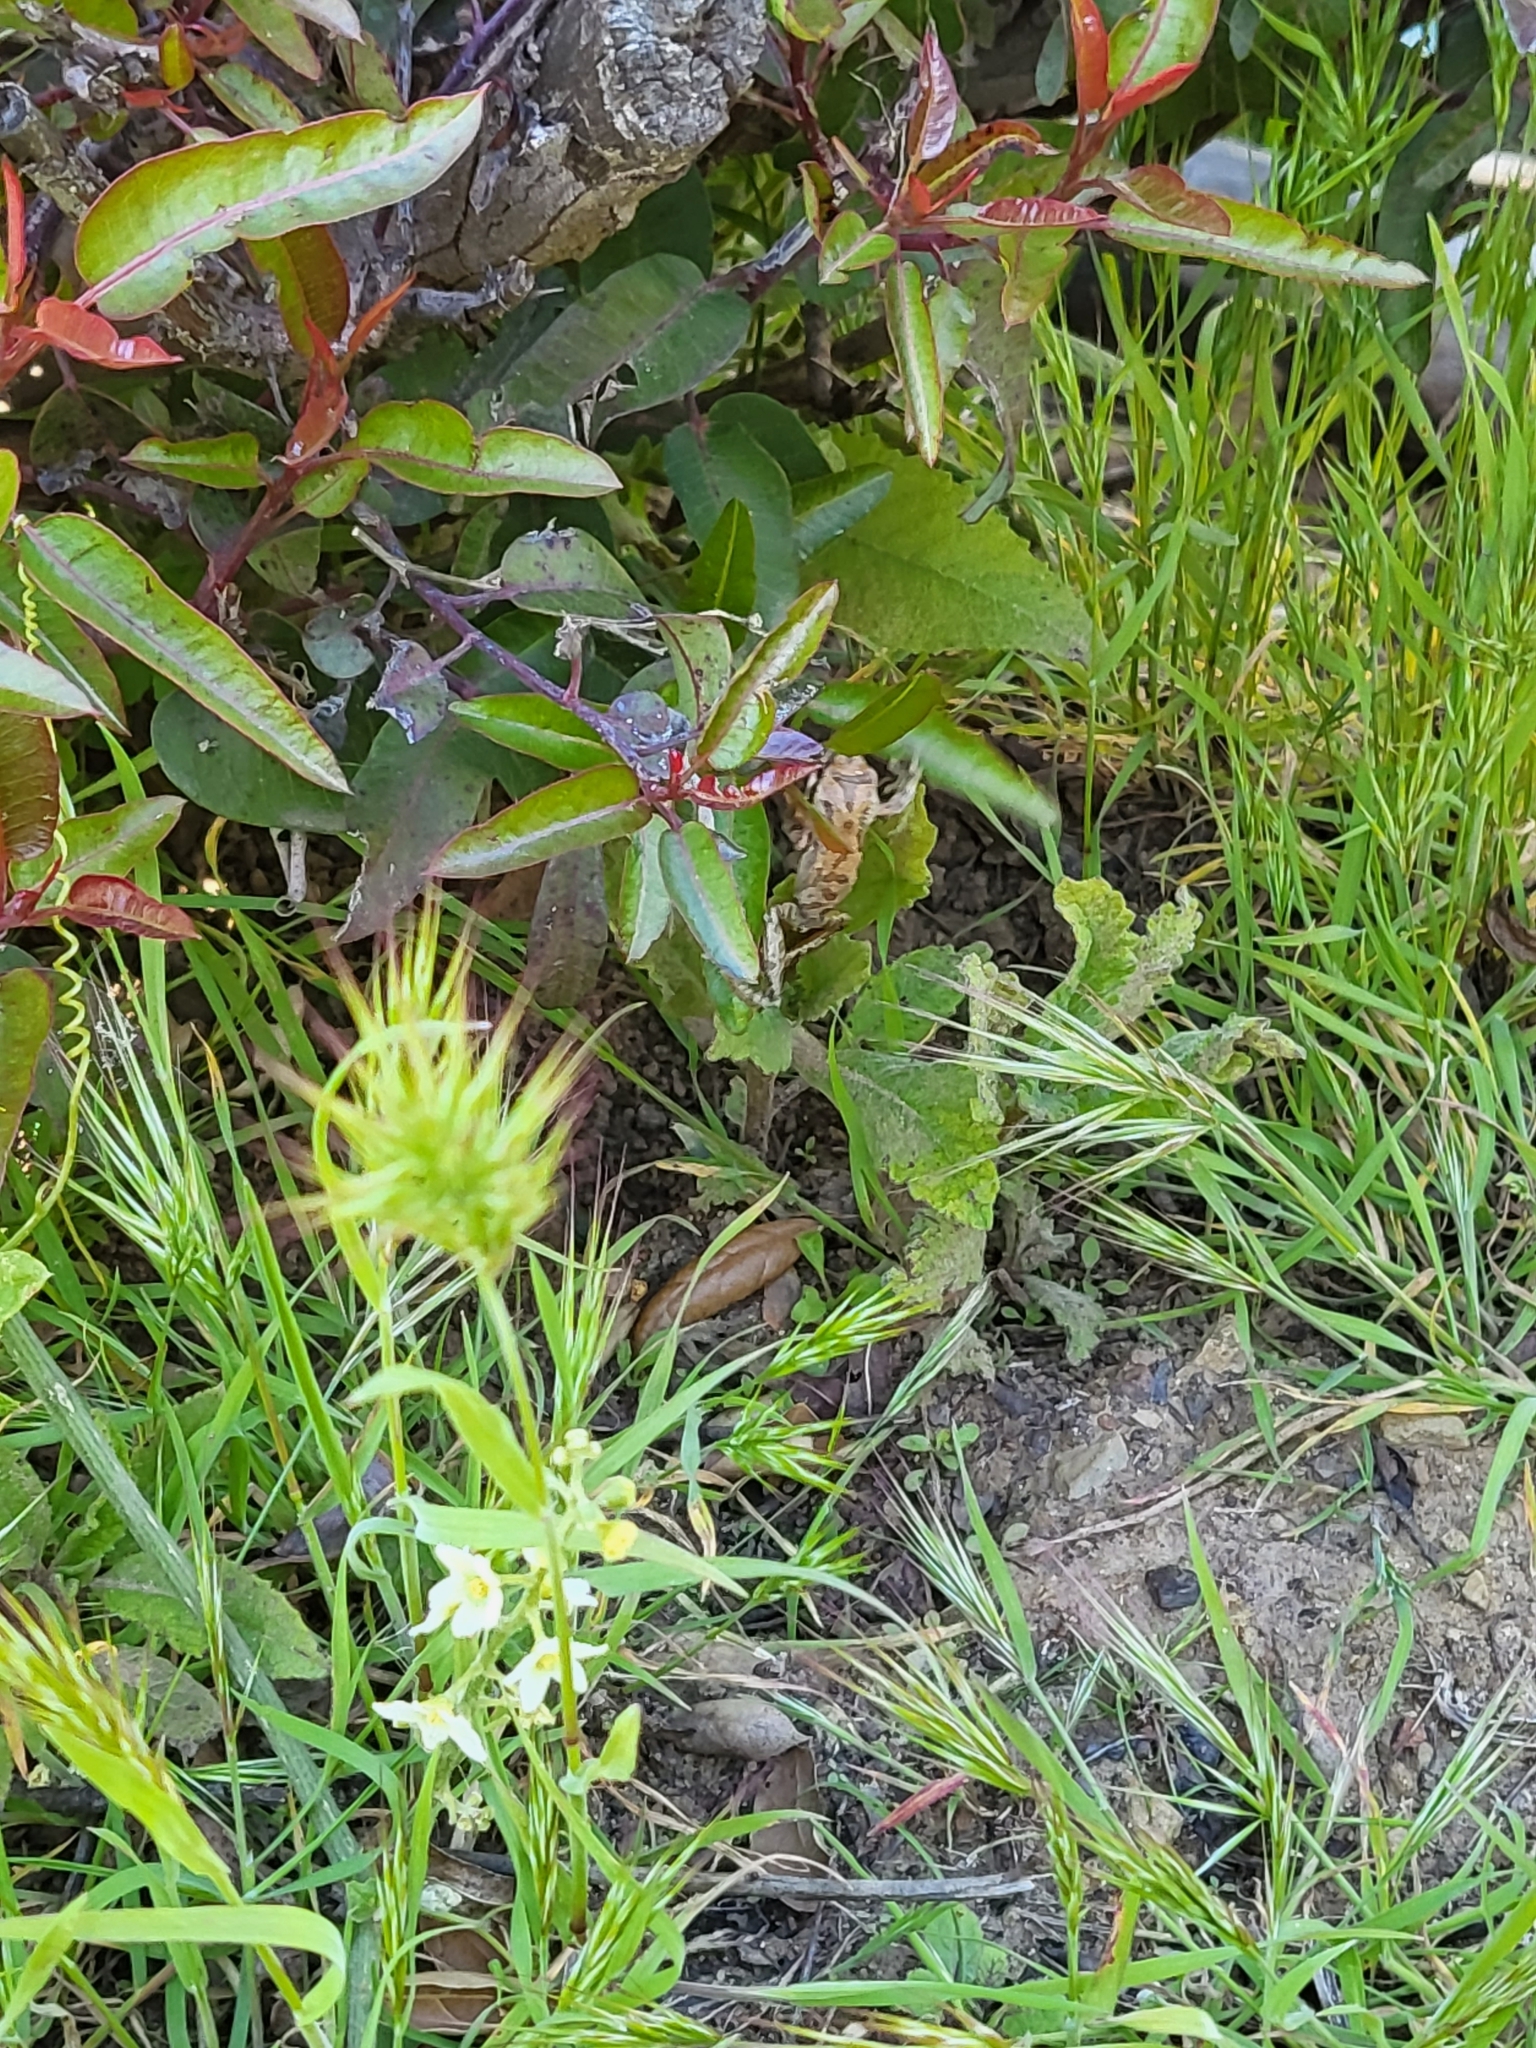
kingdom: Animalia
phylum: Chordata
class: Amphibia
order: Anura
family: Hylidae
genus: Pseudacris
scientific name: Pseudacris regilla
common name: Pacific chorus frog
